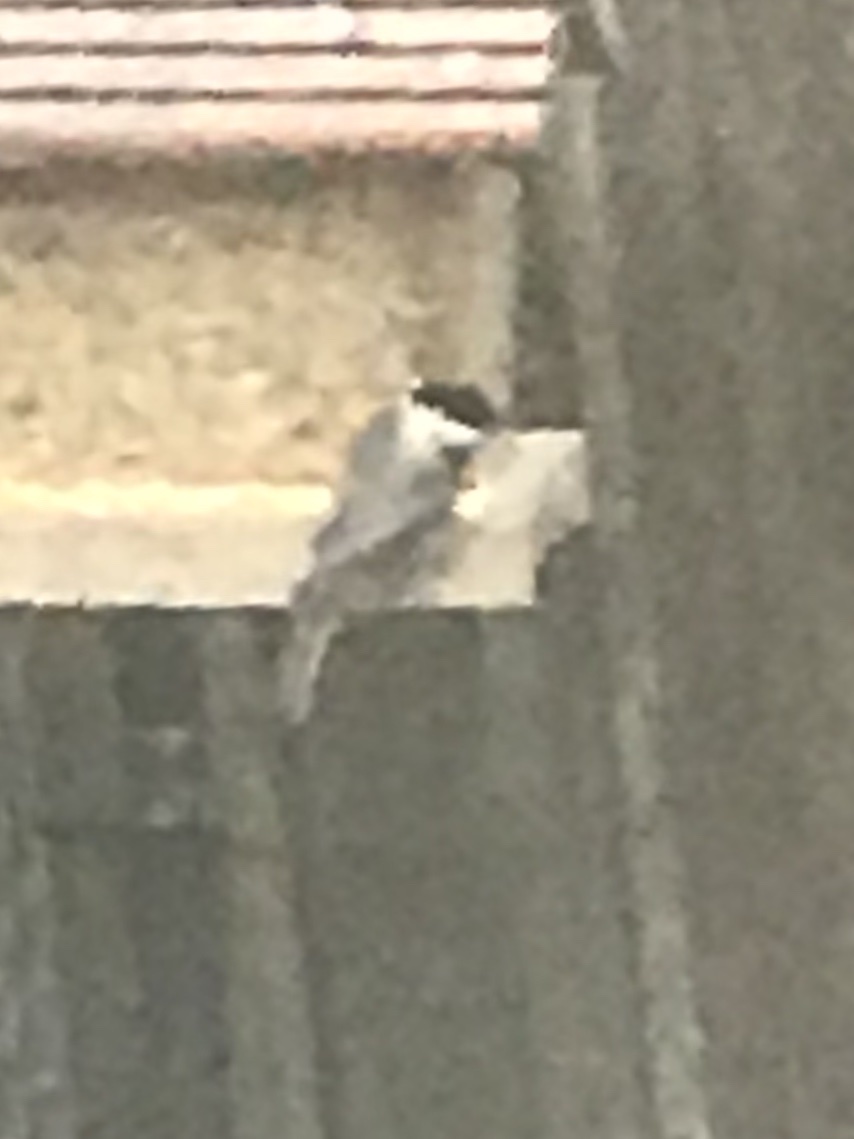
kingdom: Animalia
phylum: Chordata
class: Aves
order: Passeriformes
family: Paridae
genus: Poecile
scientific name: Poecile carolinensis
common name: Carolina chickadee
